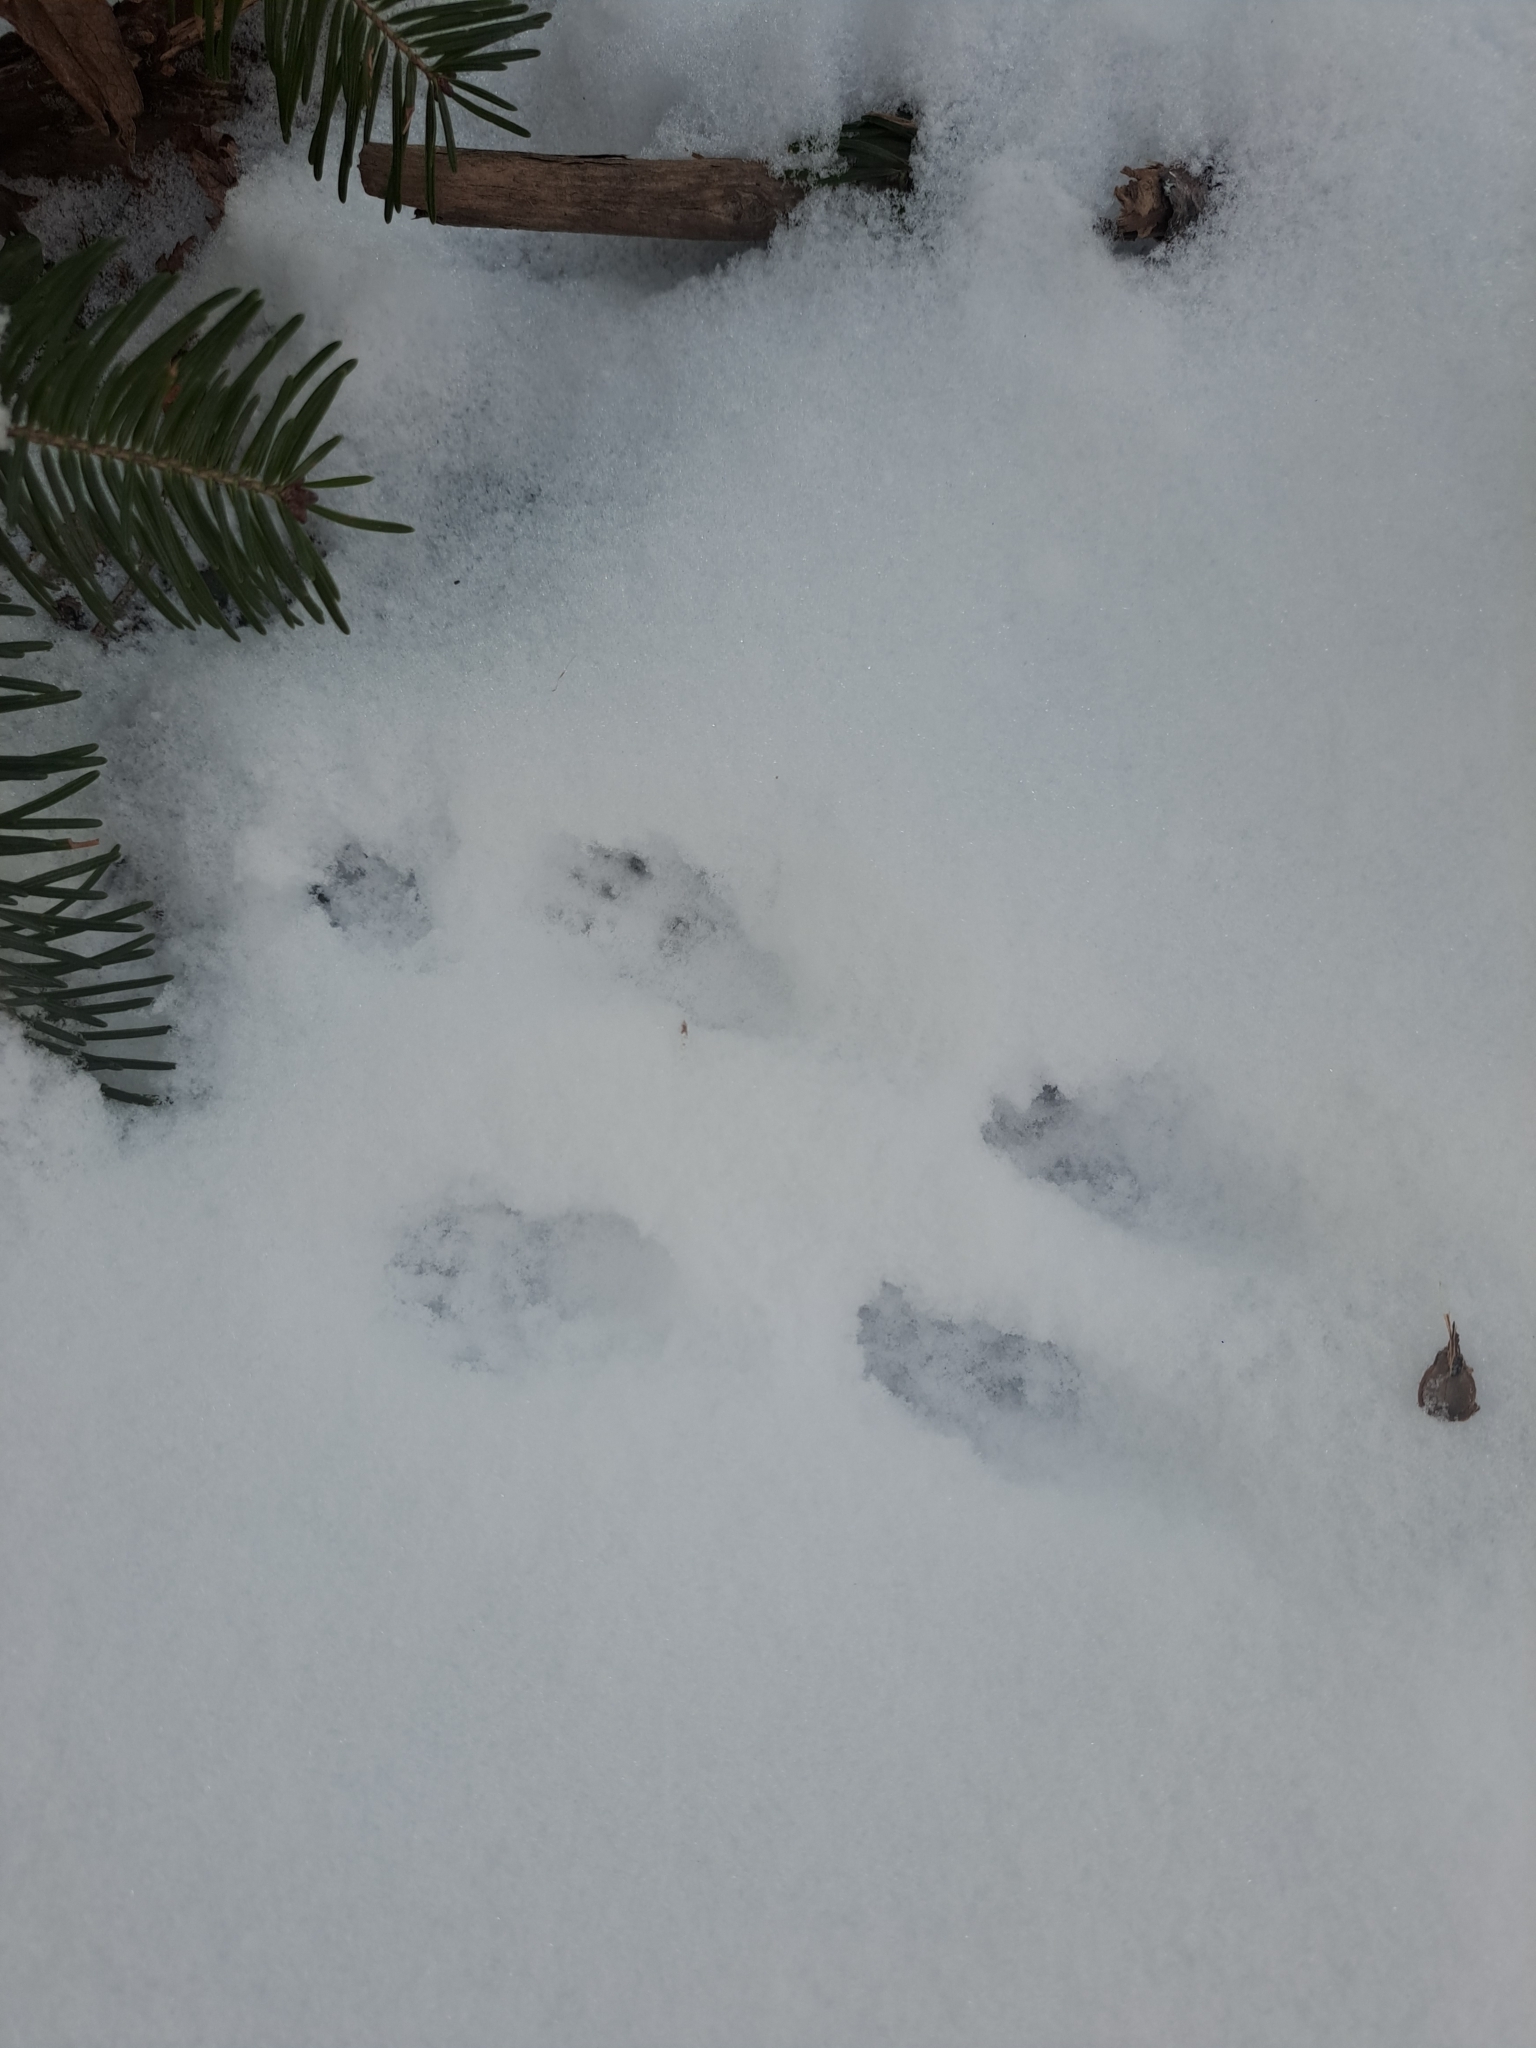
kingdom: Animalia
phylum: Chordata
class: Mammalia
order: Rodentia
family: Sciuridae
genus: Tamiasciurus
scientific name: Tamiasciurus hudsonicus
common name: Red squirrel
